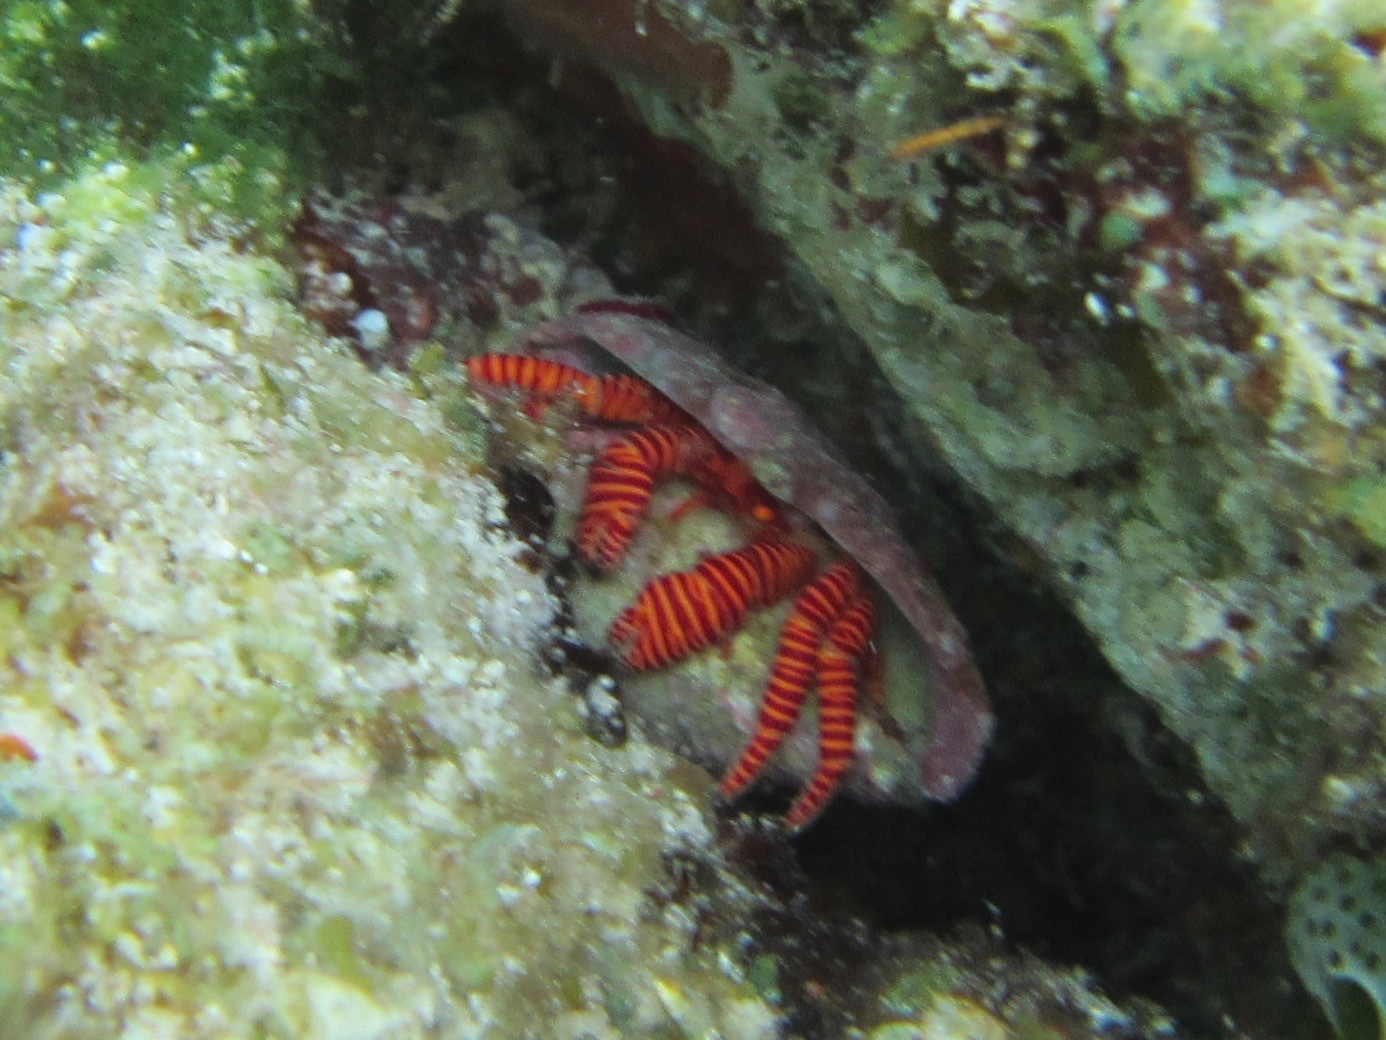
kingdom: Animalia
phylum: Arthropoda
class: Malacostraca
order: Decapoda
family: Diogenidae
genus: Ciliopagurus
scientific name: Ciliopagurus strigatus
